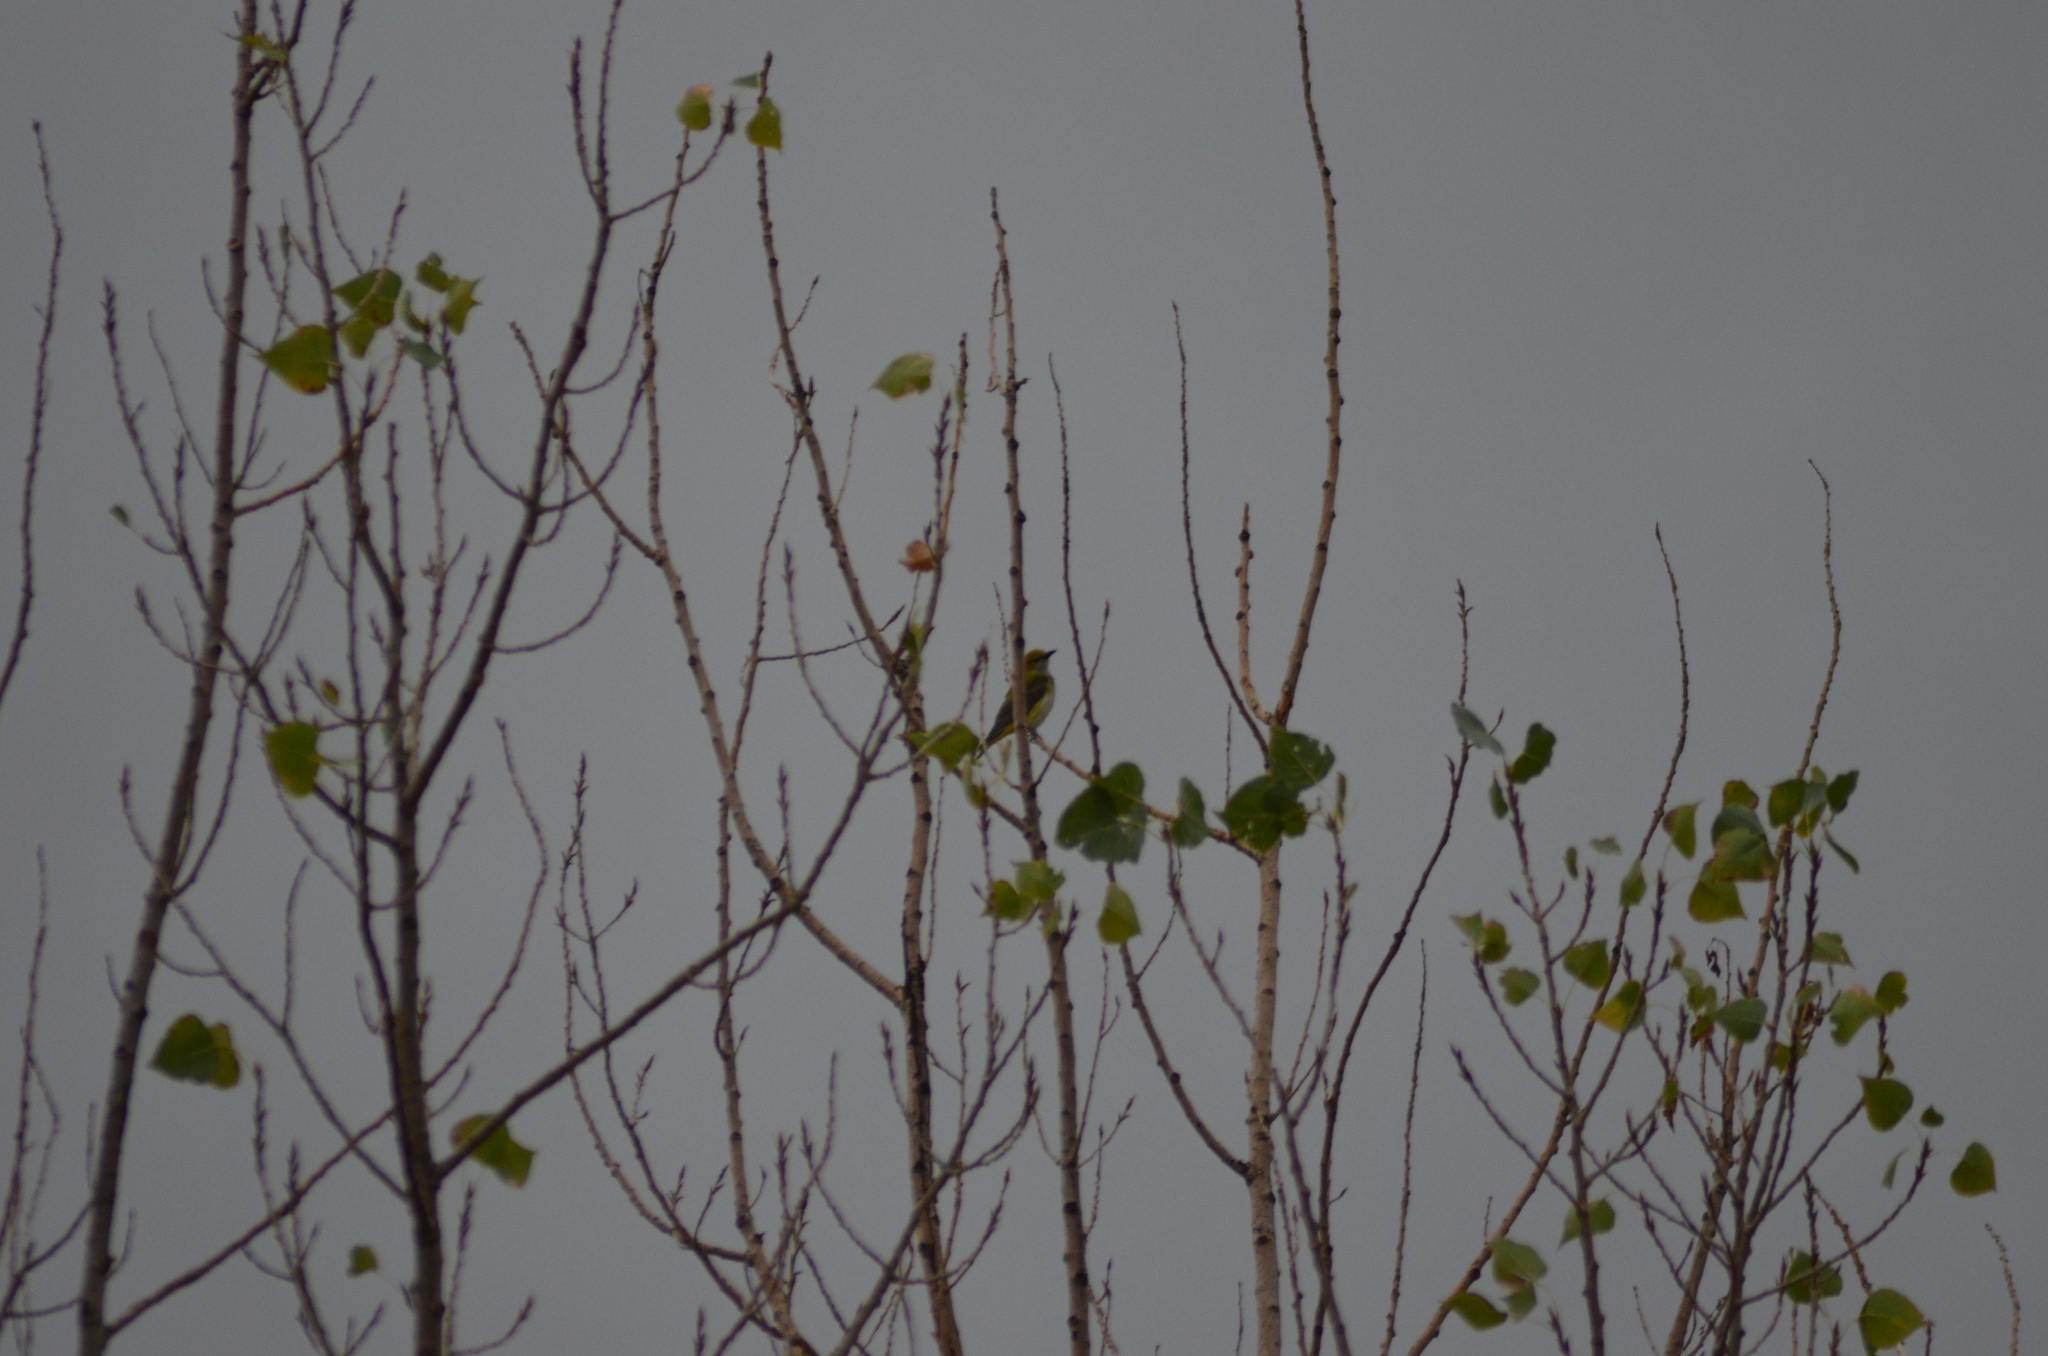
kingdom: Animalia
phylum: Chordata
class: Aves
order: Passeriformes
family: Oriolidae
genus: Oriolus
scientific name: Oriolus oriolus
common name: Eurasian golden oriole
